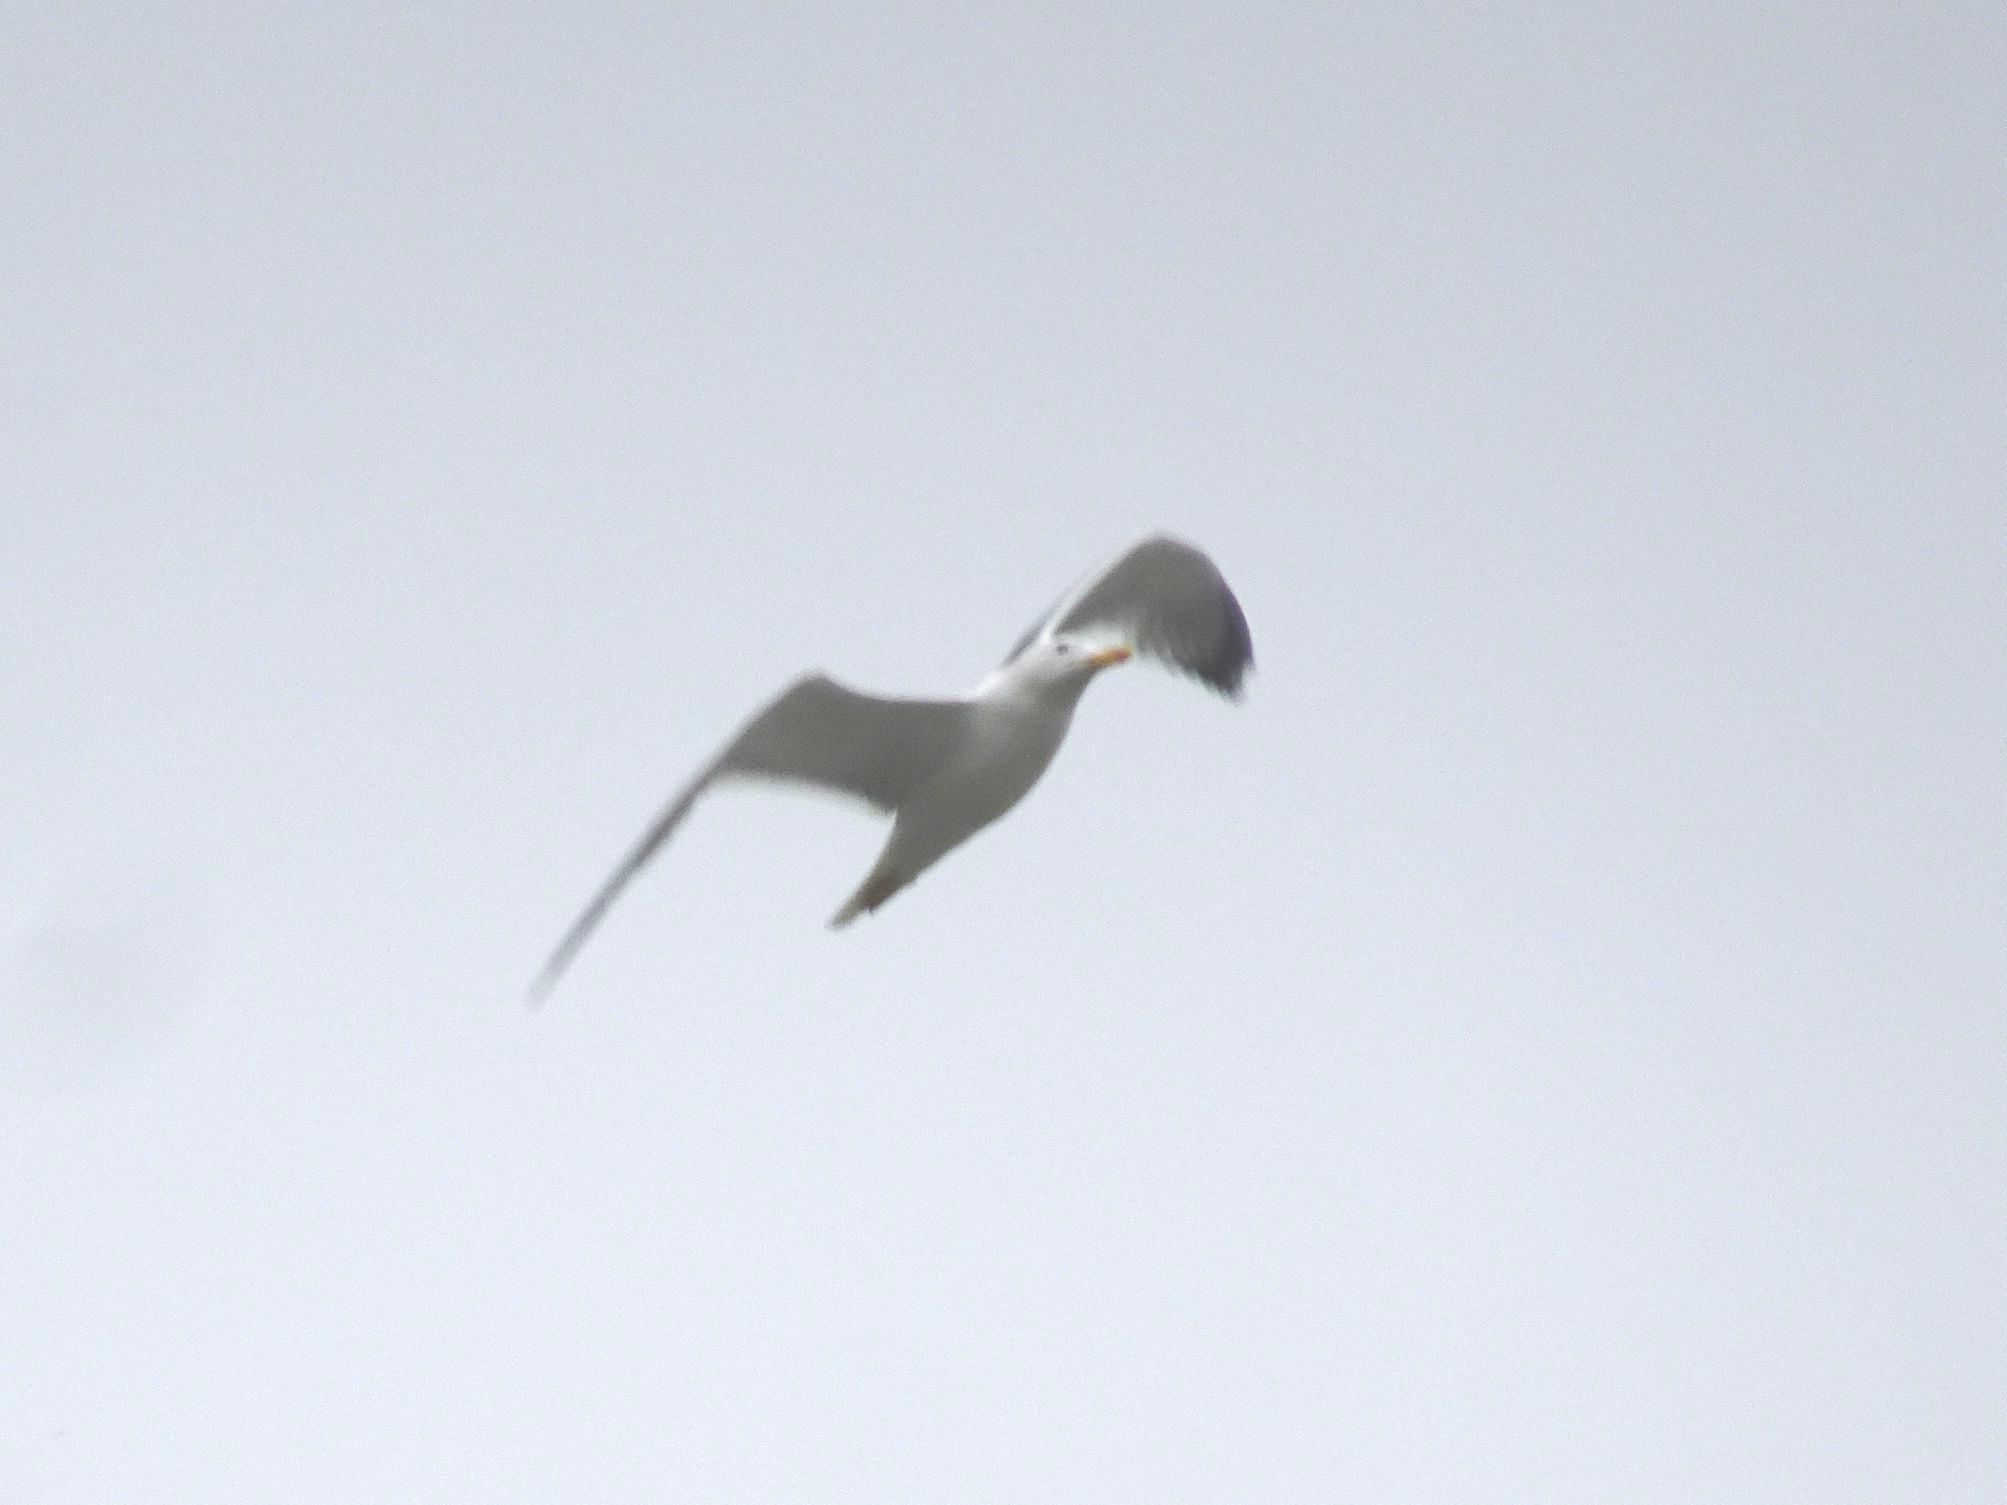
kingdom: Animalia
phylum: Chordata
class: Aves
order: Charadriiformes
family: Laridae
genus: Larus
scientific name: Larus michahellis
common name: Yellow-legged gull
